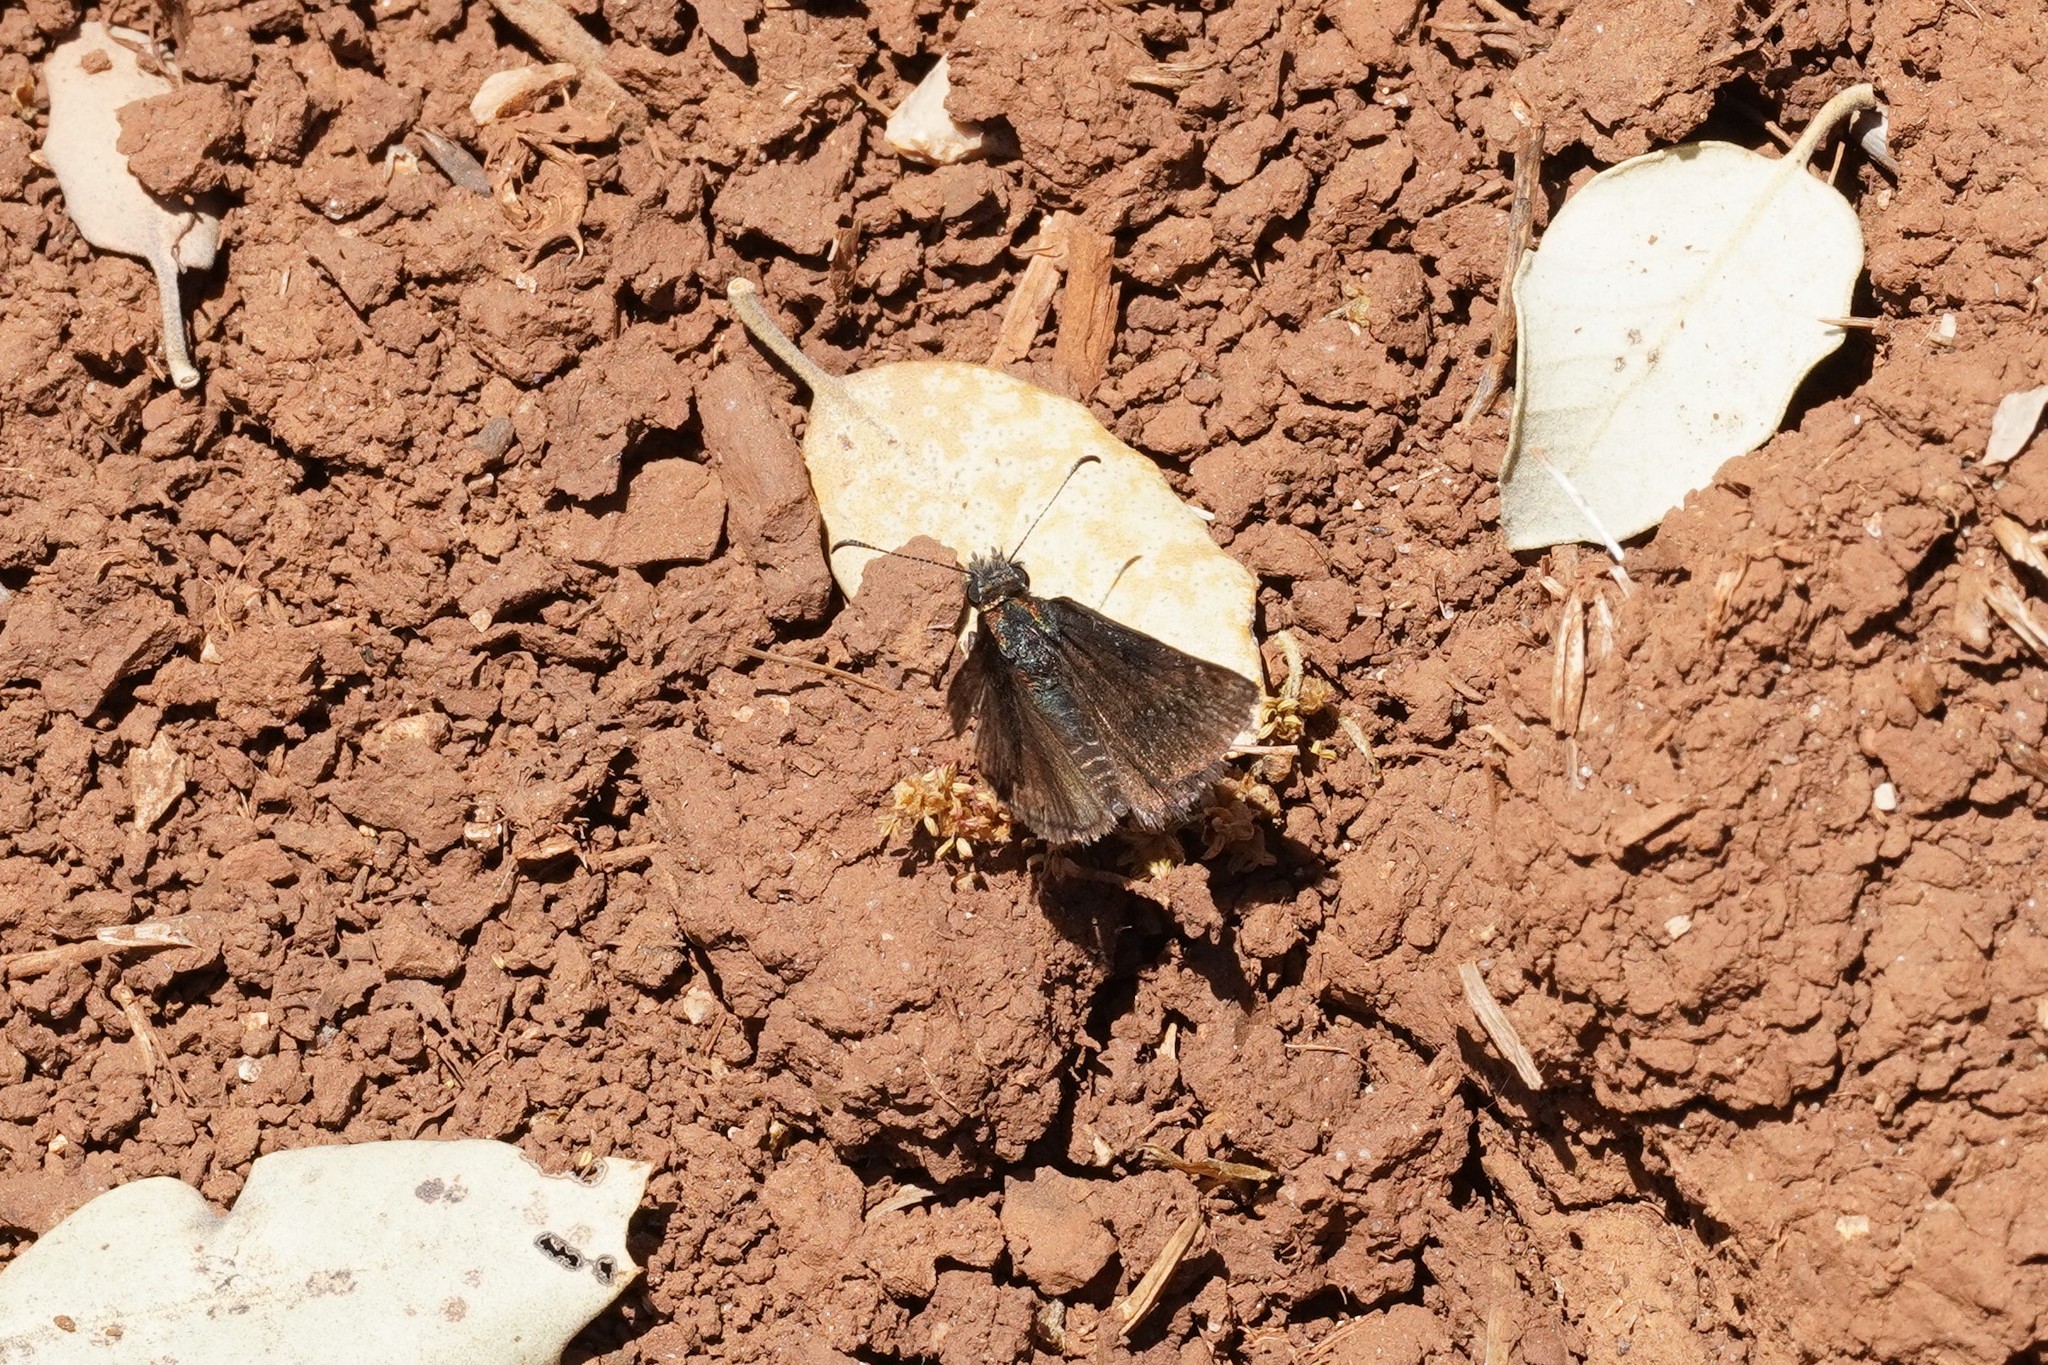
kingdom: Animalia
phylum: Arthropoda
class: Insecta
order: Lepidoptera
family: Hesperiidae
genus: Erynnis
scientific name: Erynnis tages
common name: Dingy skipper
